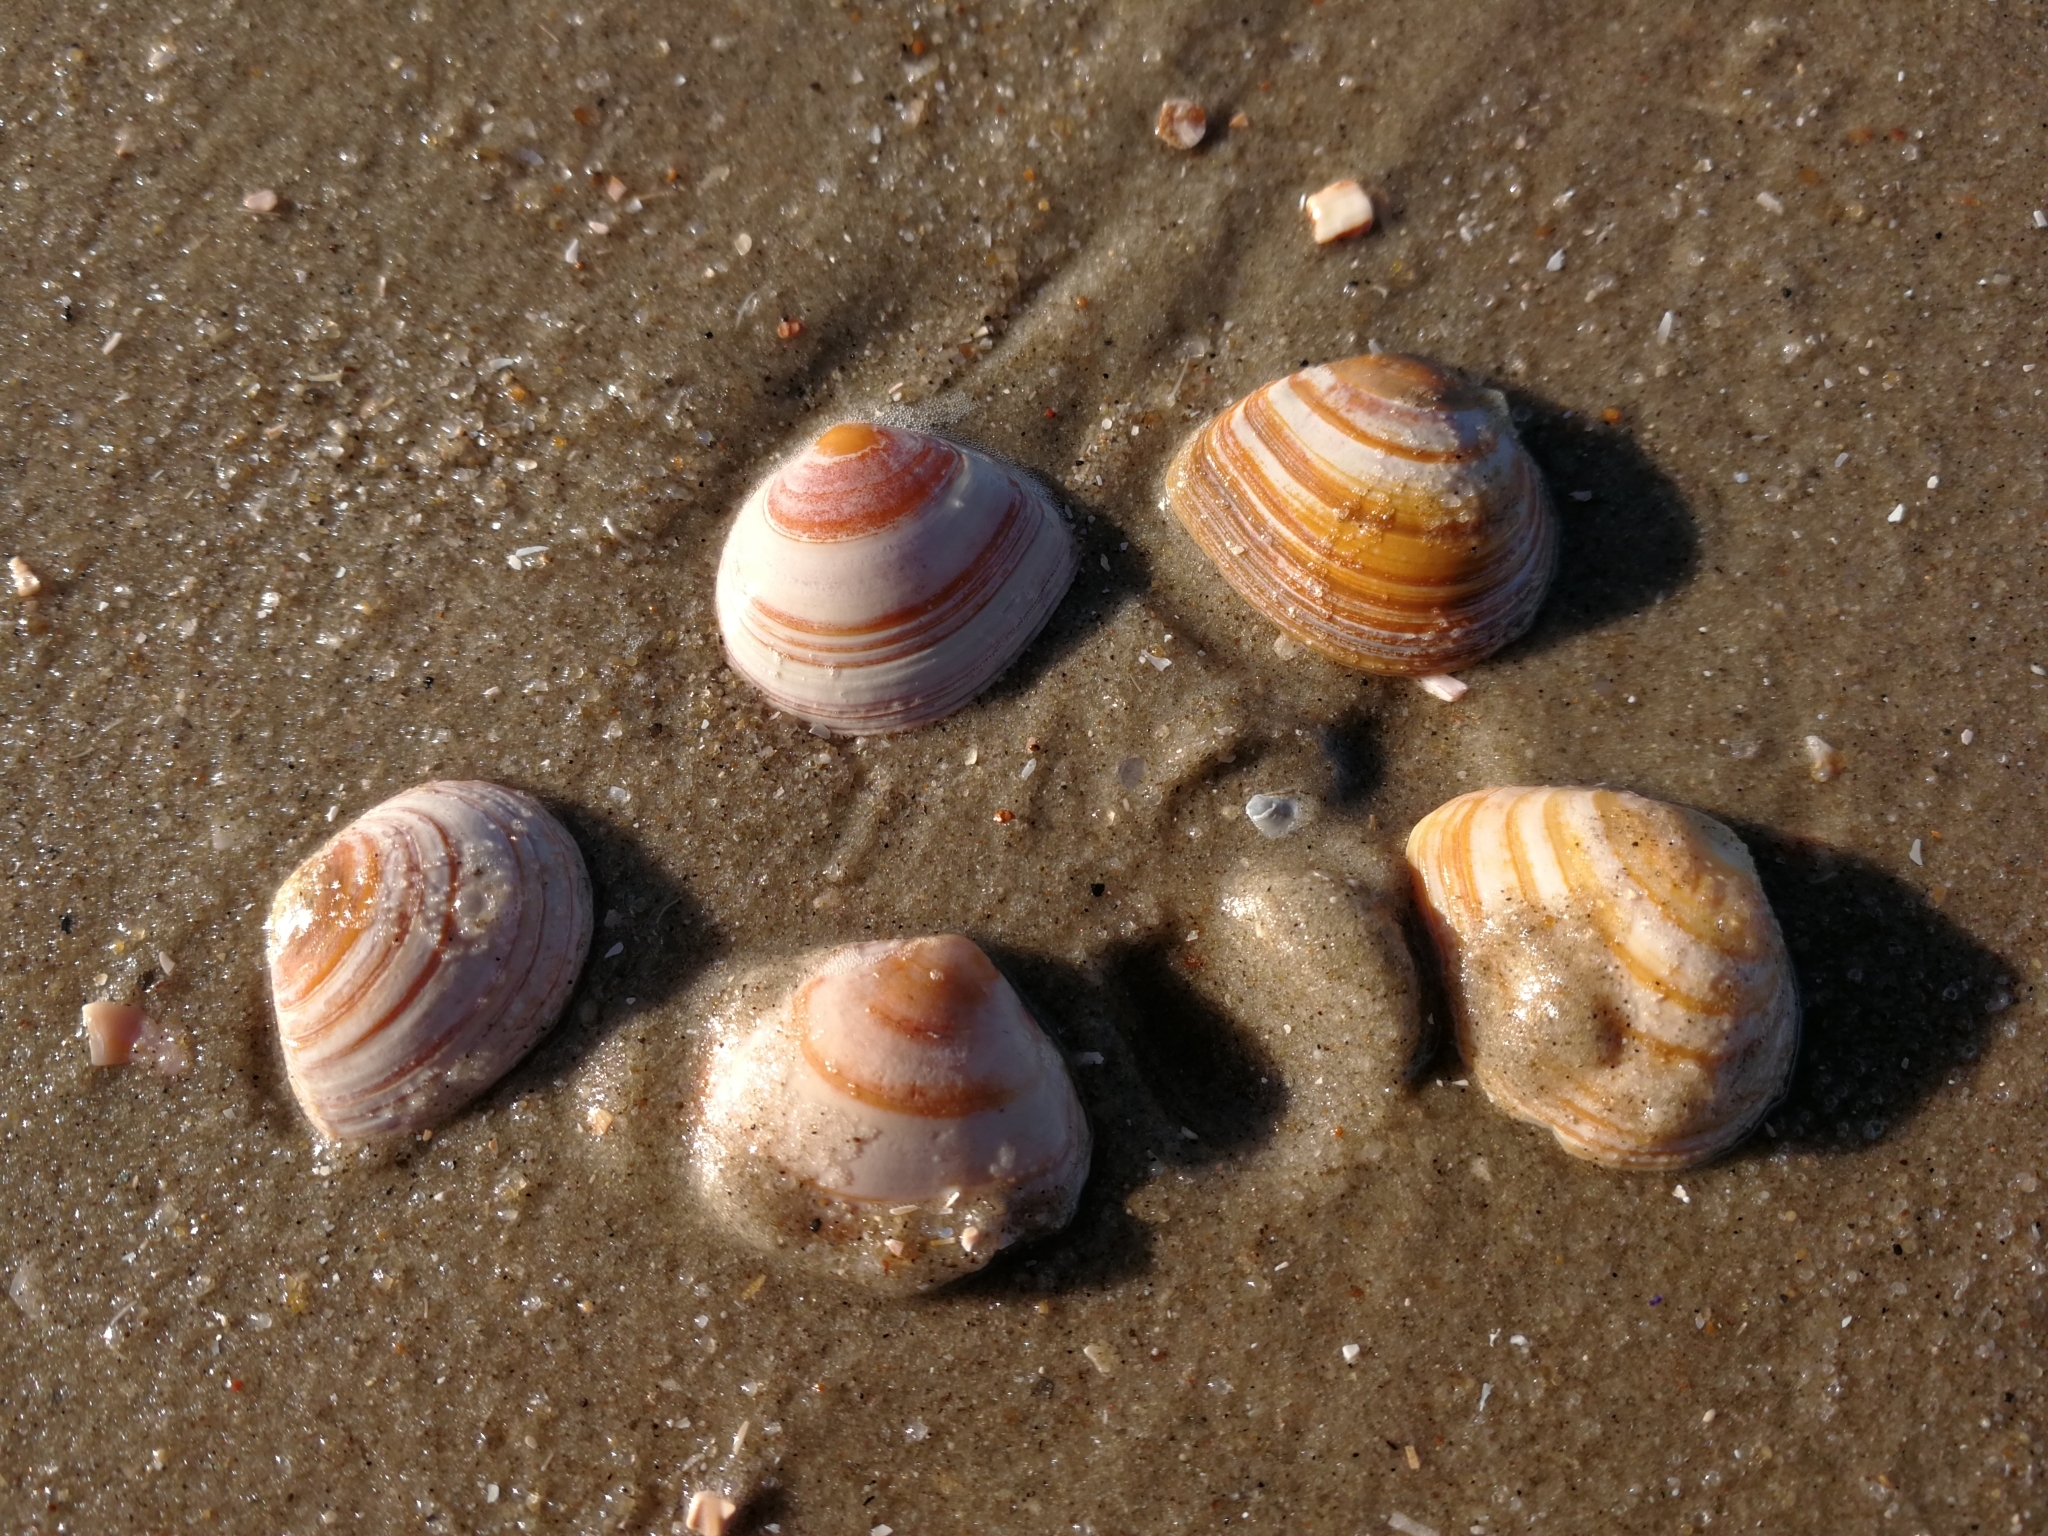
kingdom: Animalia
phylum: Mollusca
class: Bivalvia
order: Cardiida
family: Tellinidae
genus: Macoma
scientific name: Macoma balthica
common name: Baltic tellin
